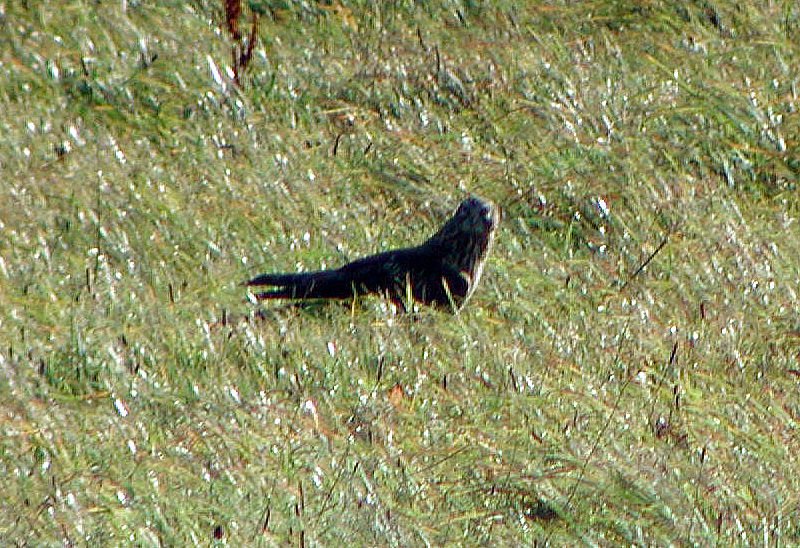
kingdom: Animalia
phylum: Chordata
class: Aves
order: Accipitriformes
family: Accipitridae
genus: Circus
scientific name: Circus cyaneus
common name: Hen harrier
